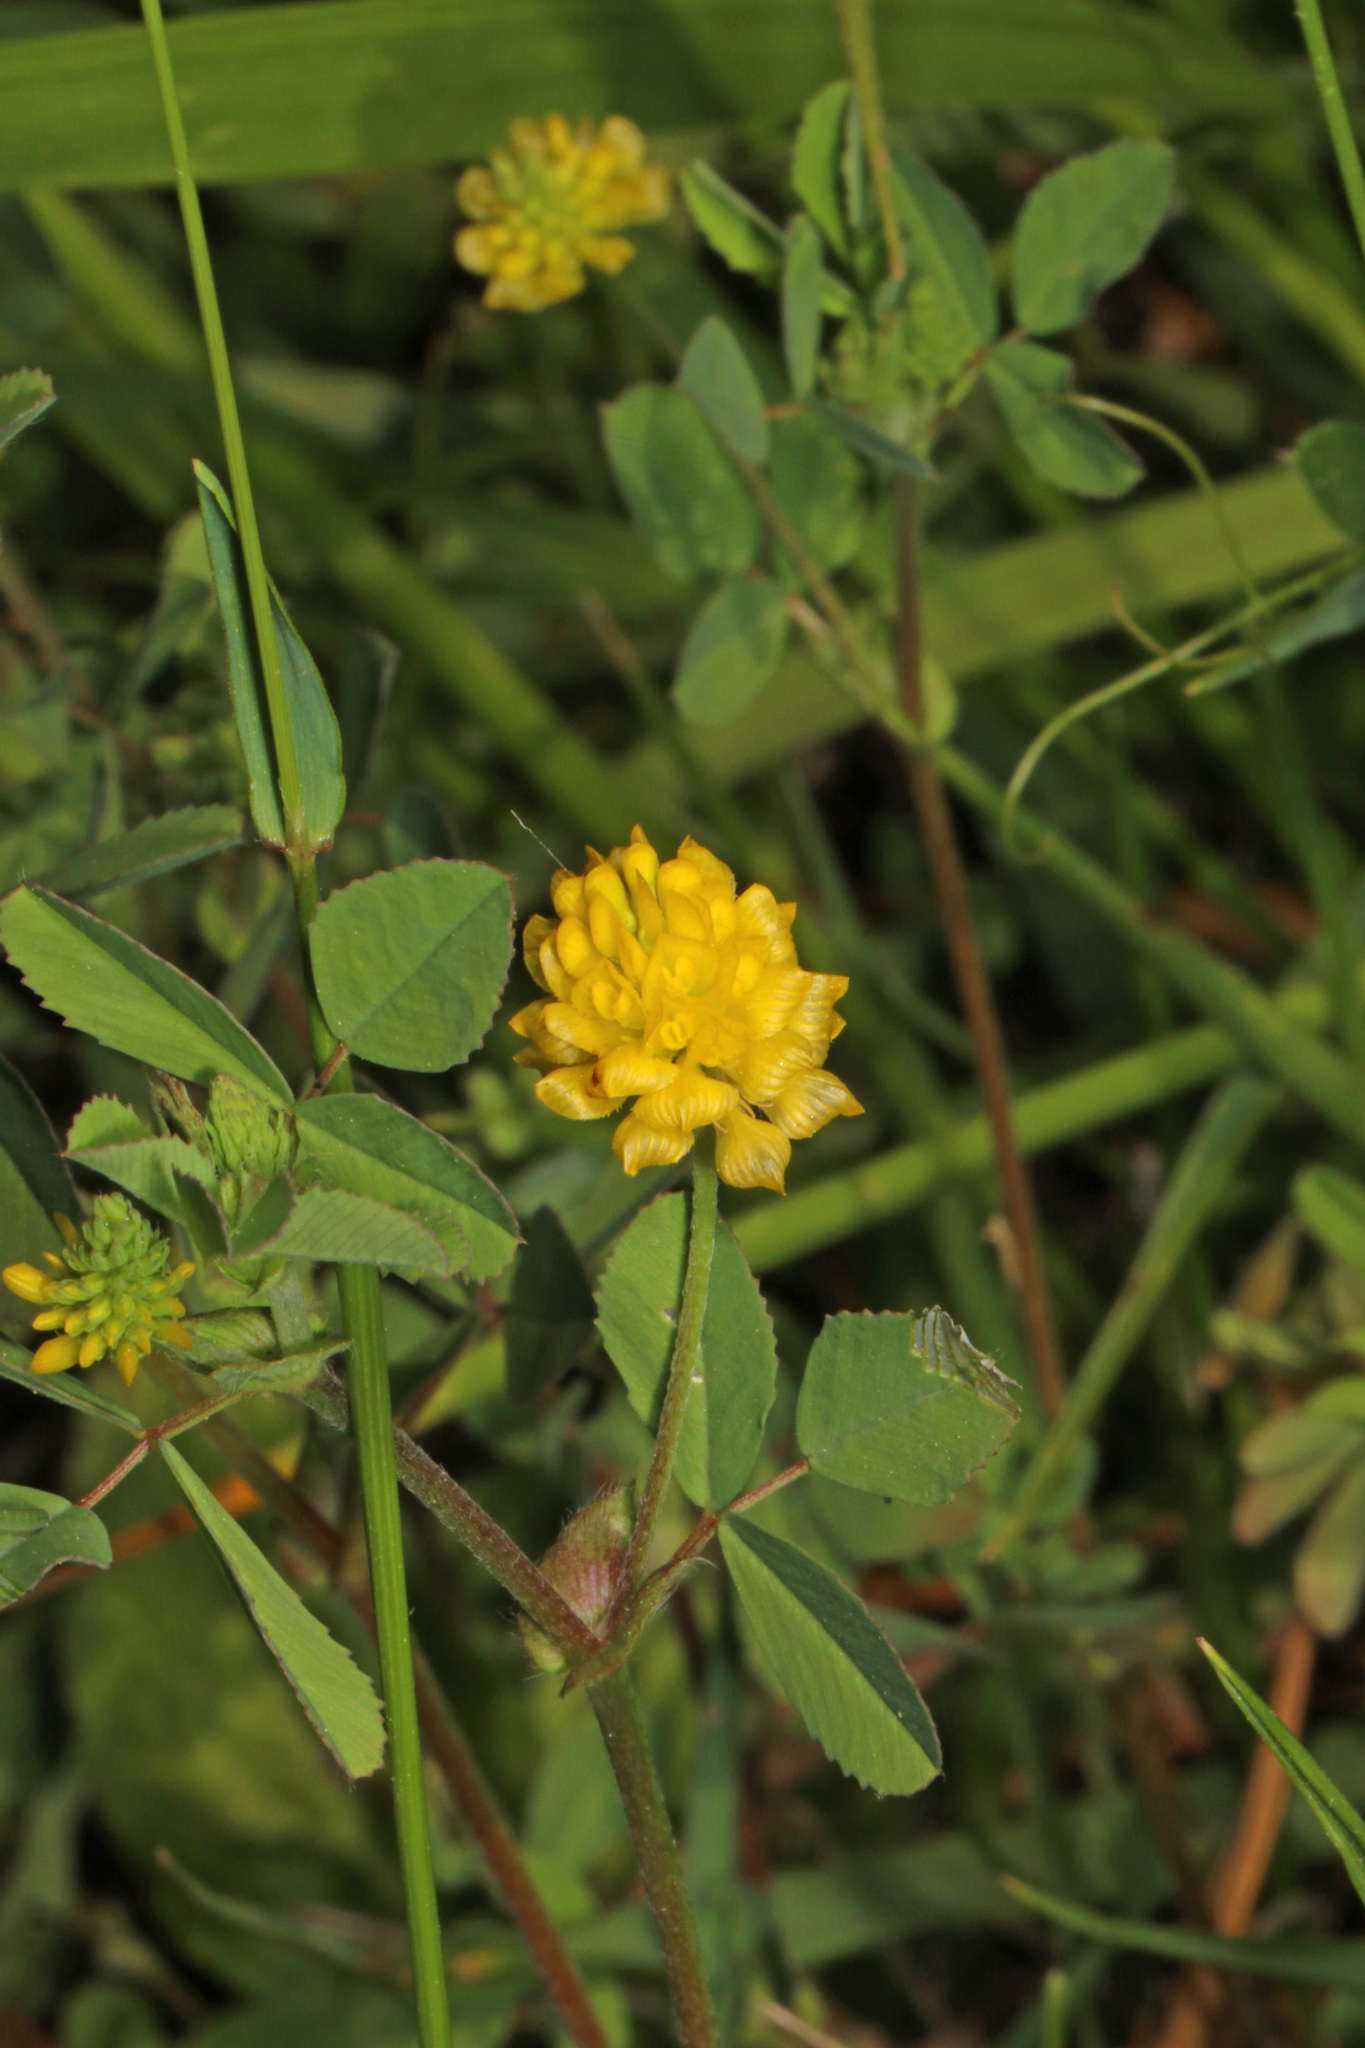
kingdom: Plantae
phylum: Tracheophyta
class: Magnoliopsida
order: Fabales
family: Fabaceae
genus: Trifolium
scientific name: Trifolium campestre
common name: Field clover
